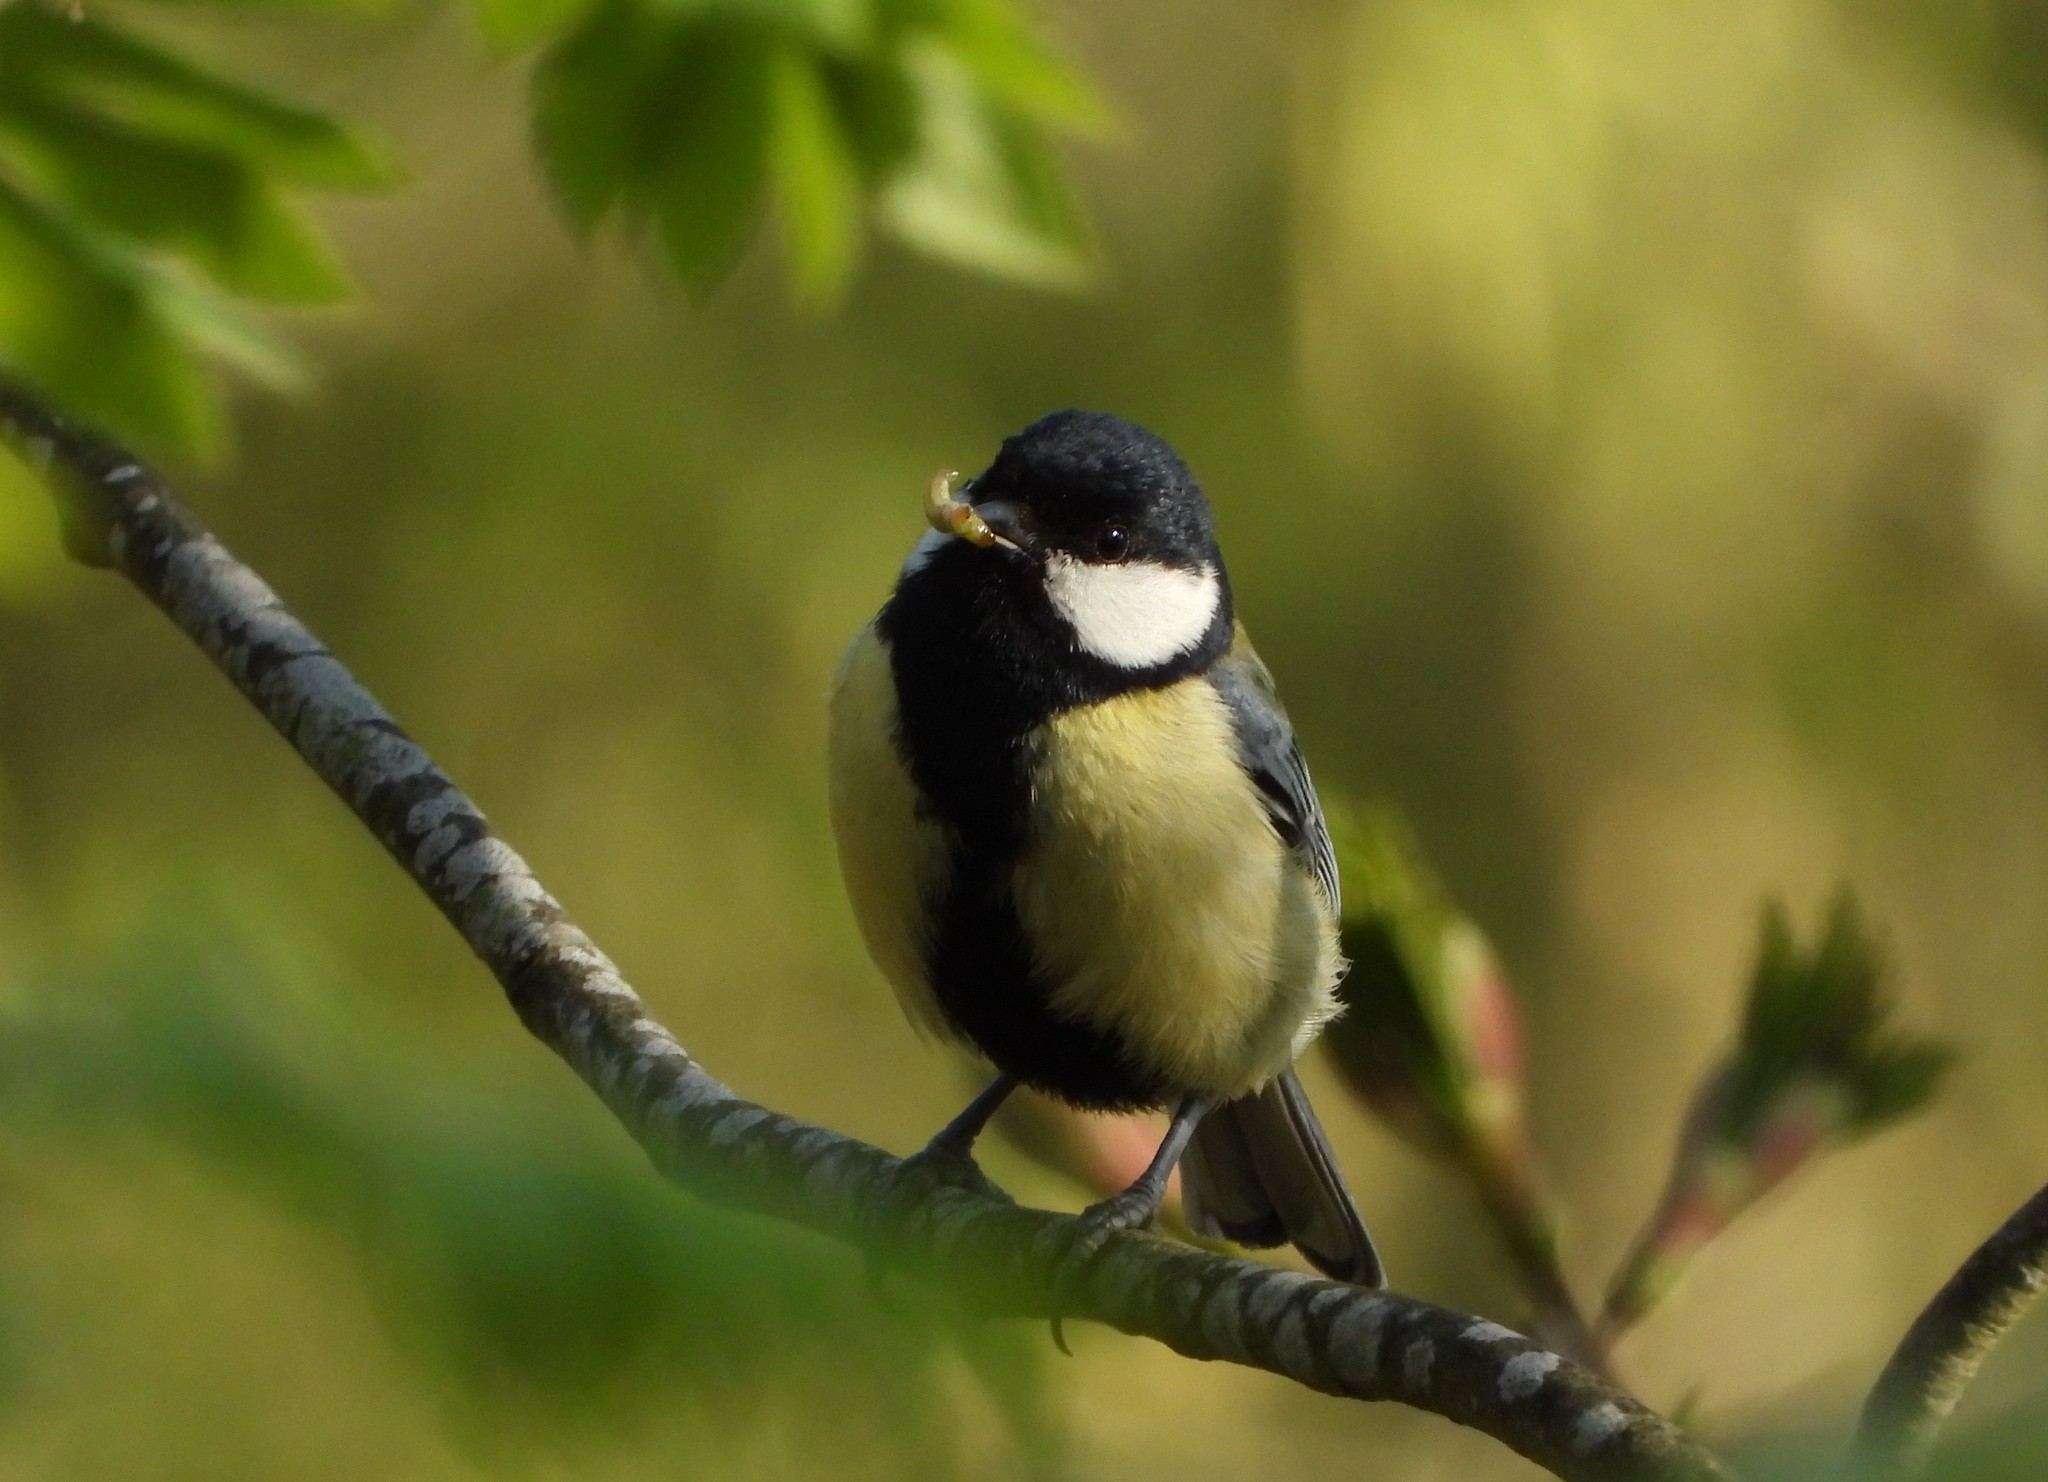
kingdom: Animalia
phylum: Chordata
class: Aves
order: Passeriformes
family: Paridae
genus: Parus
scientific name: Parus major
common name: Great tit
